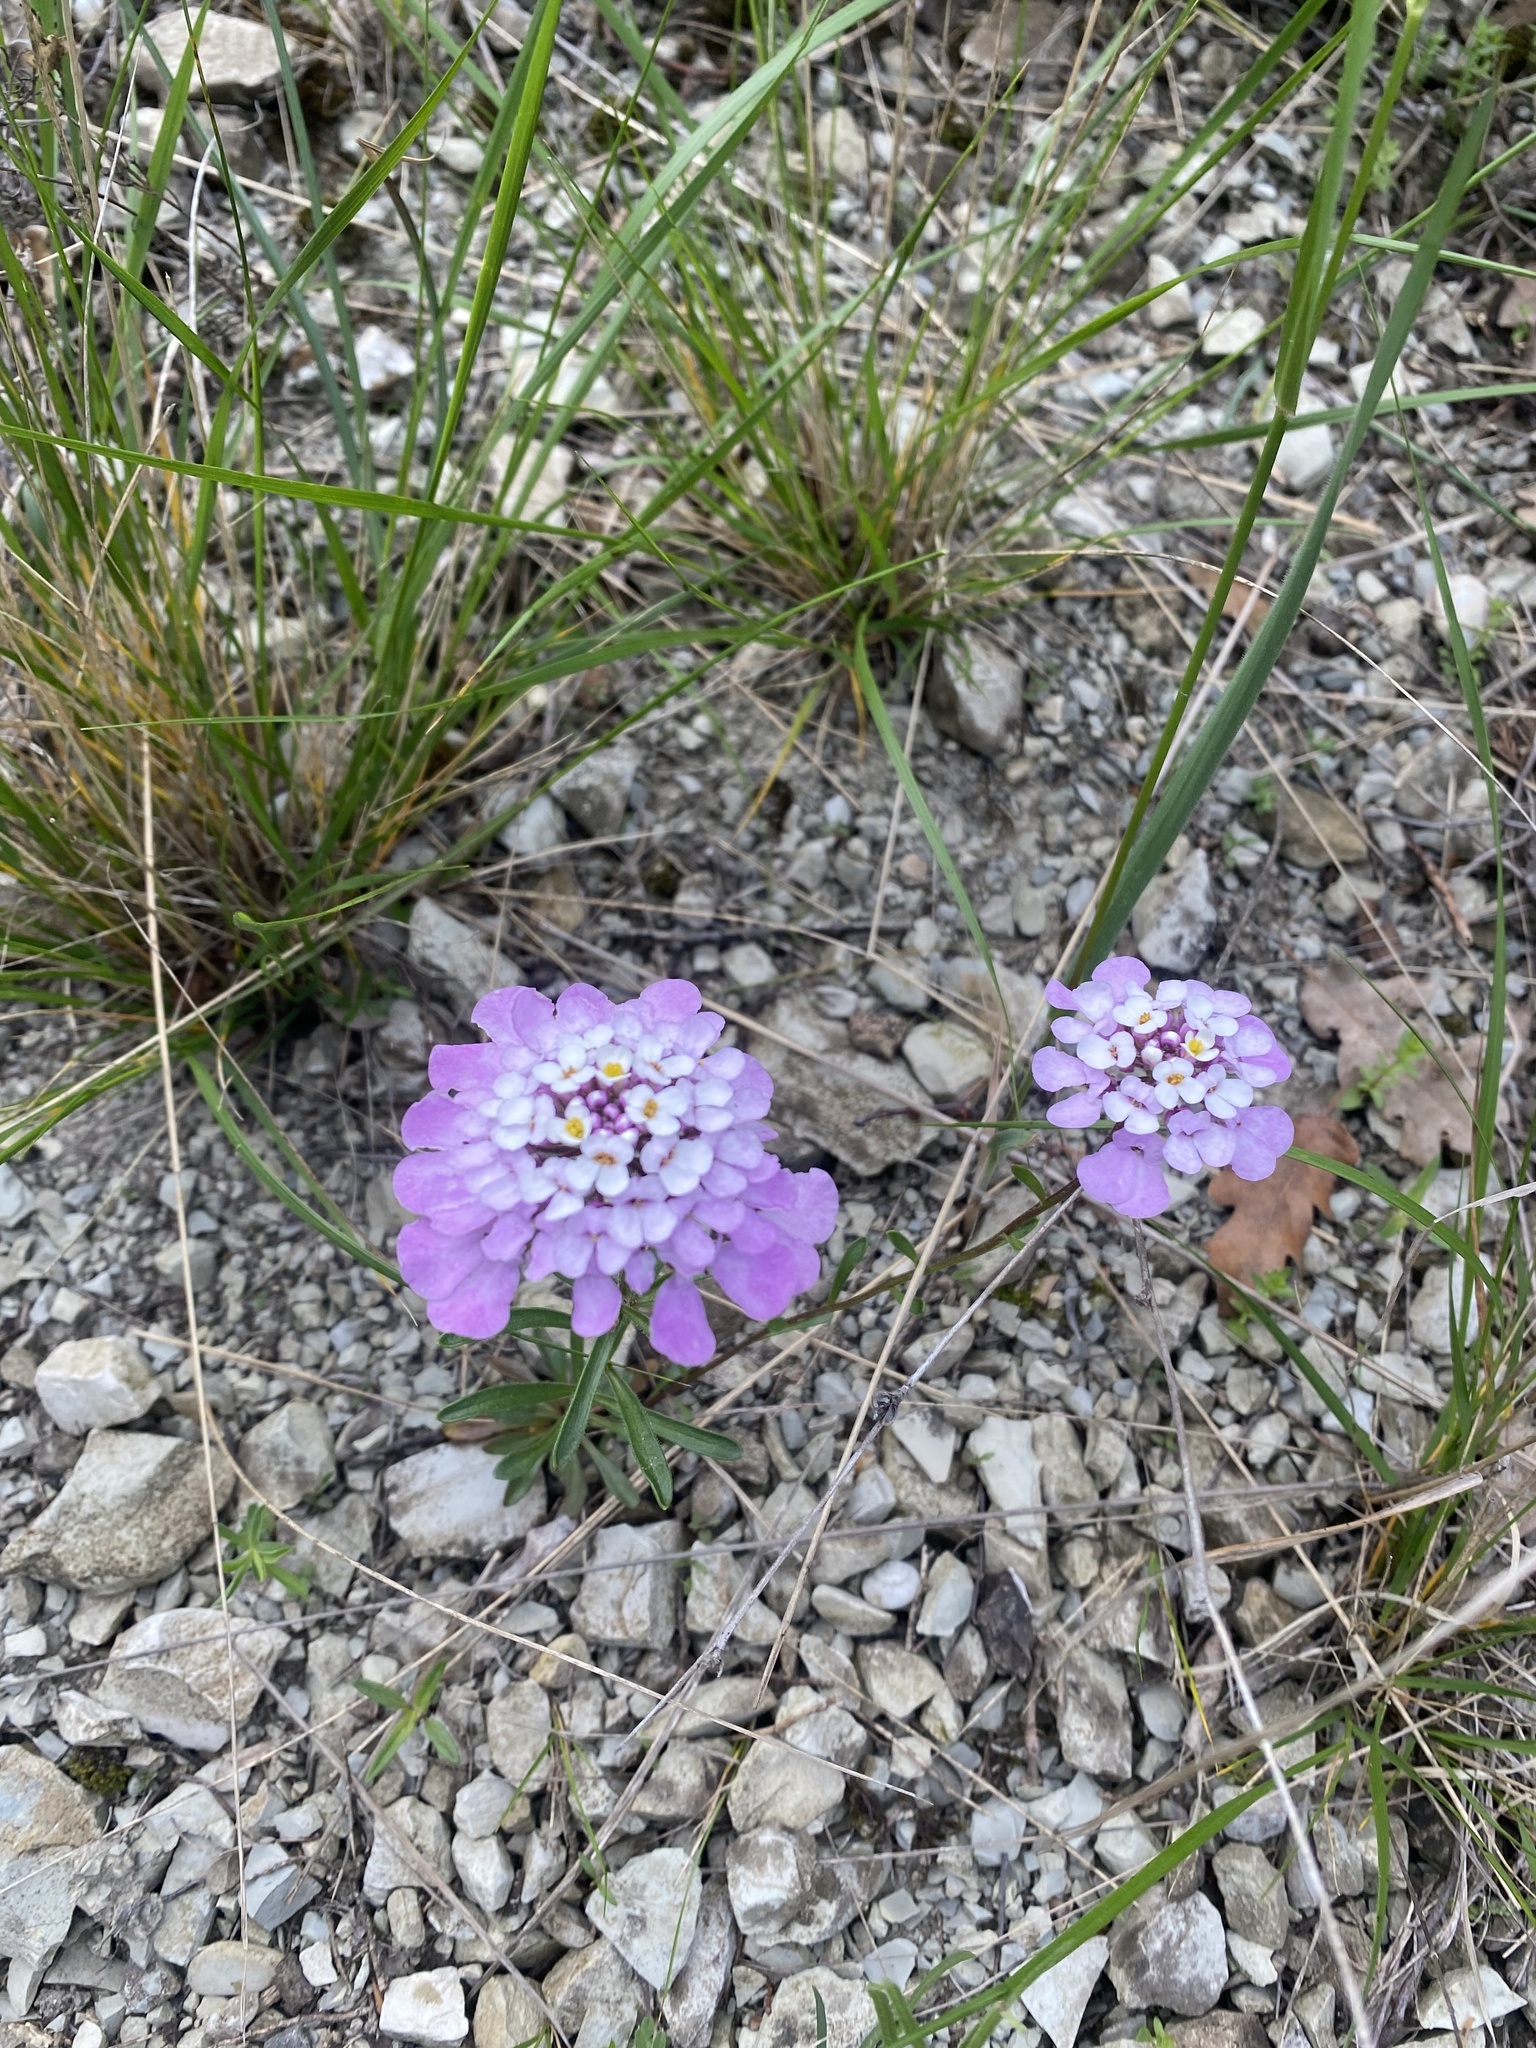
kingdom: Plantae
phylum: Tracheophyta
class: Magnoliopsida
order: Brassicales
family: Brassicaceae
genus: Iberis
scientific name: Iberis simplex
